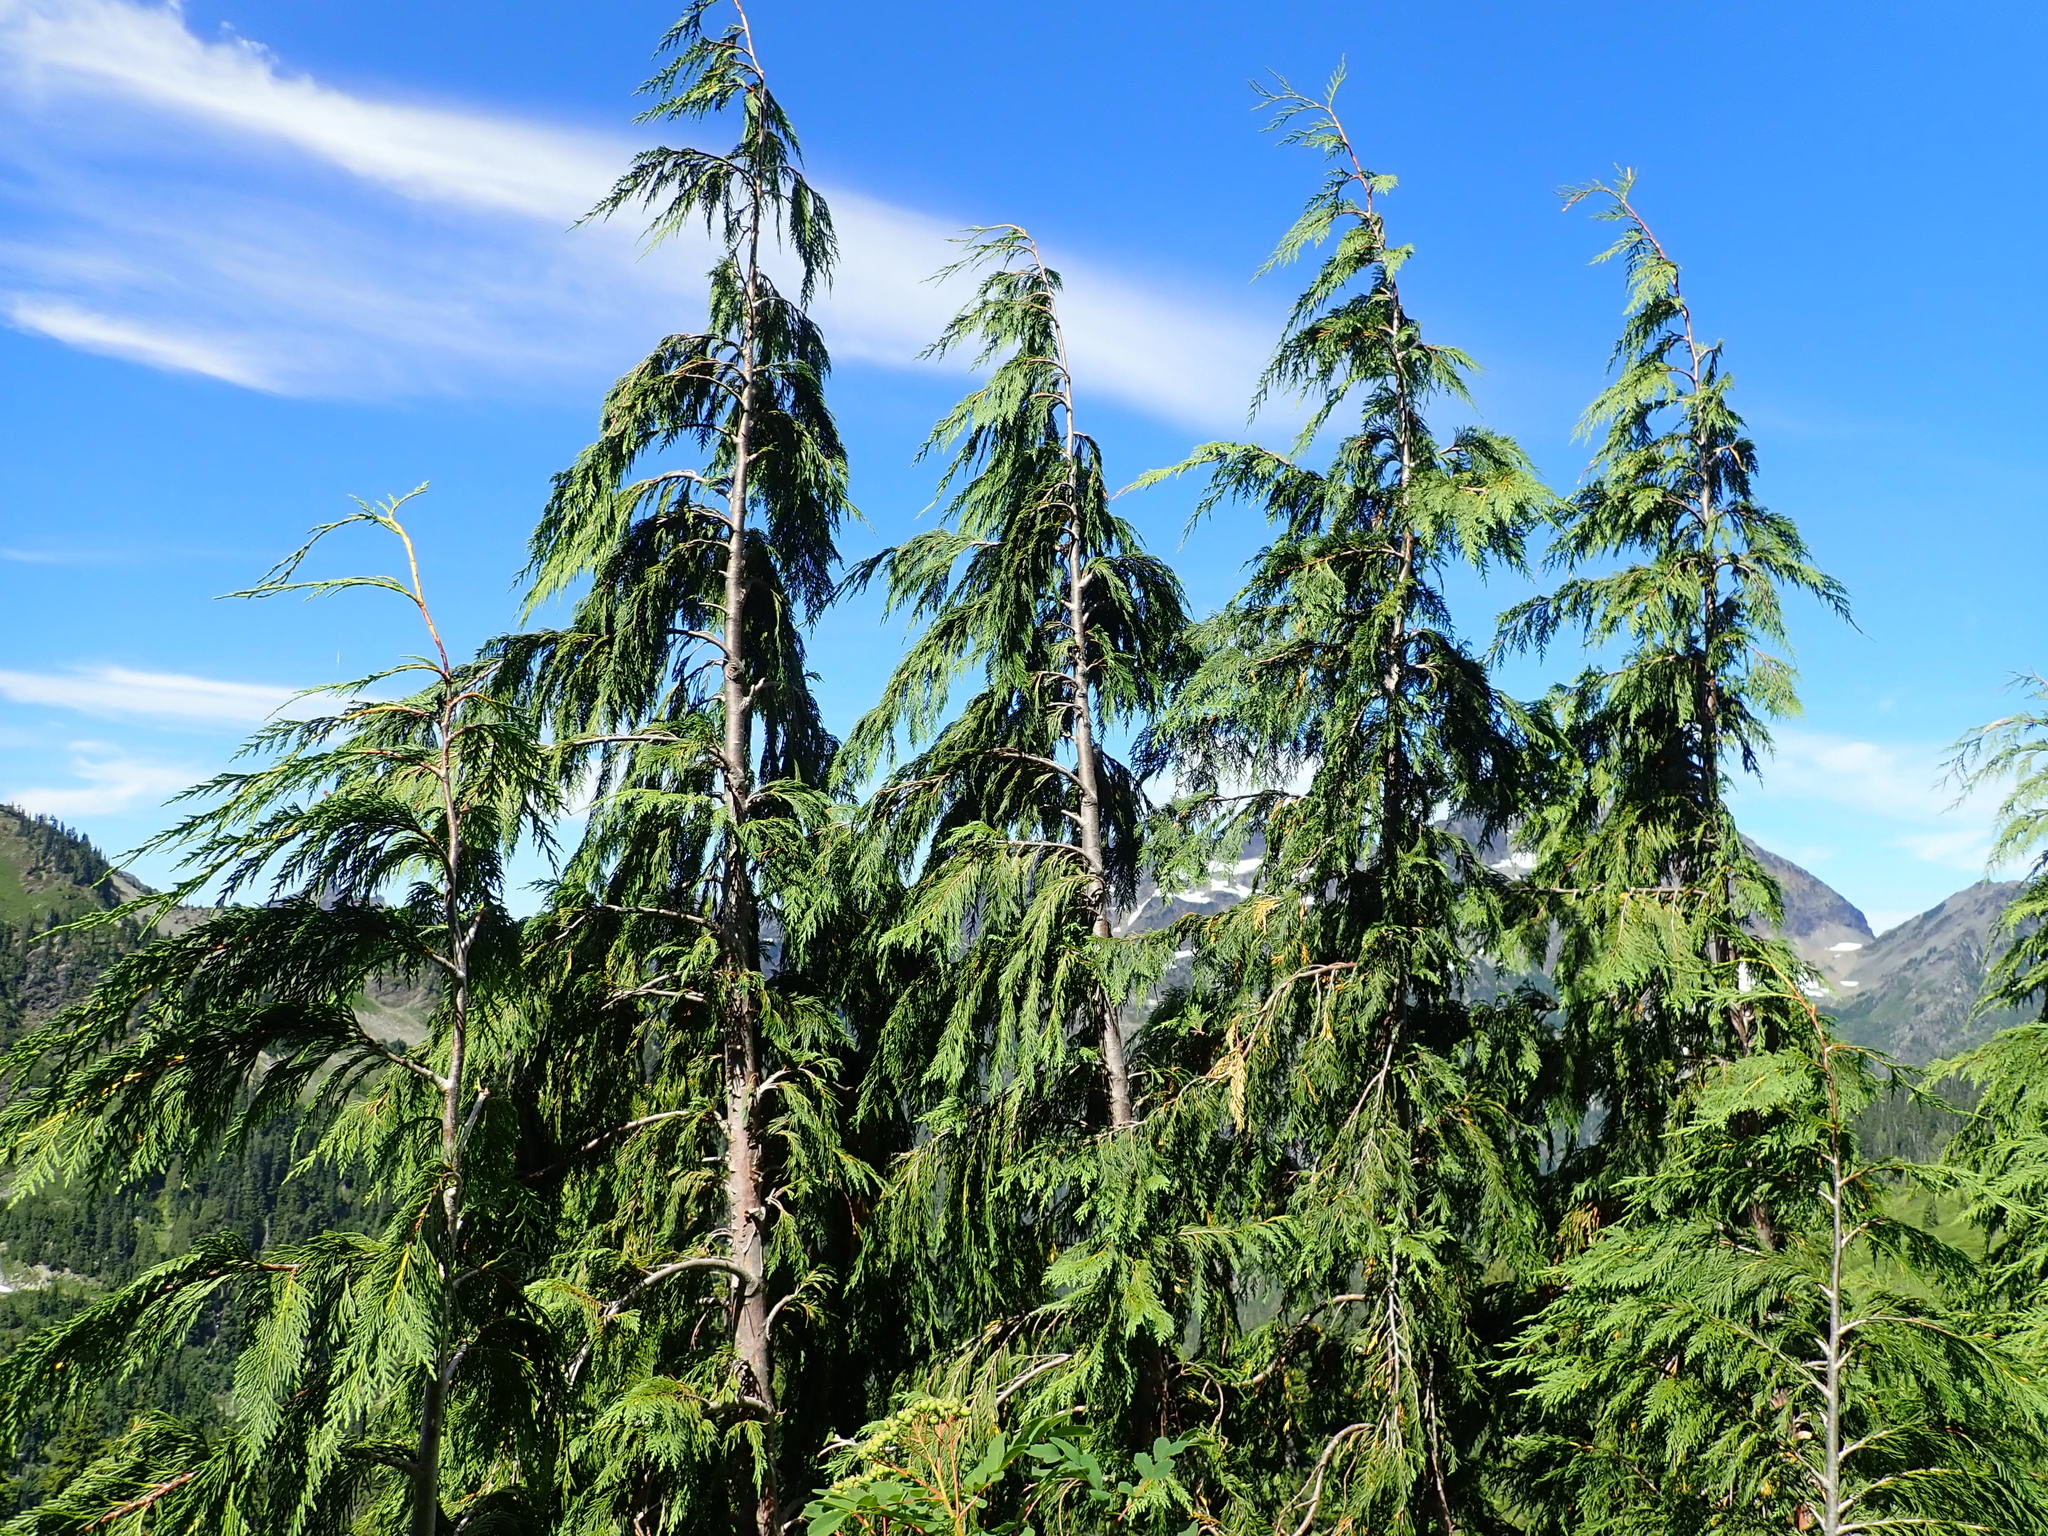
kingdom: Plantae
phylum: Tracheophyta
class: Pinopsida
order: Pinales
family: Cupressaceae
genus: Xanthocyparis
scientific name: Xanthocyparis nootkatensis
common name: Nootka cypress
